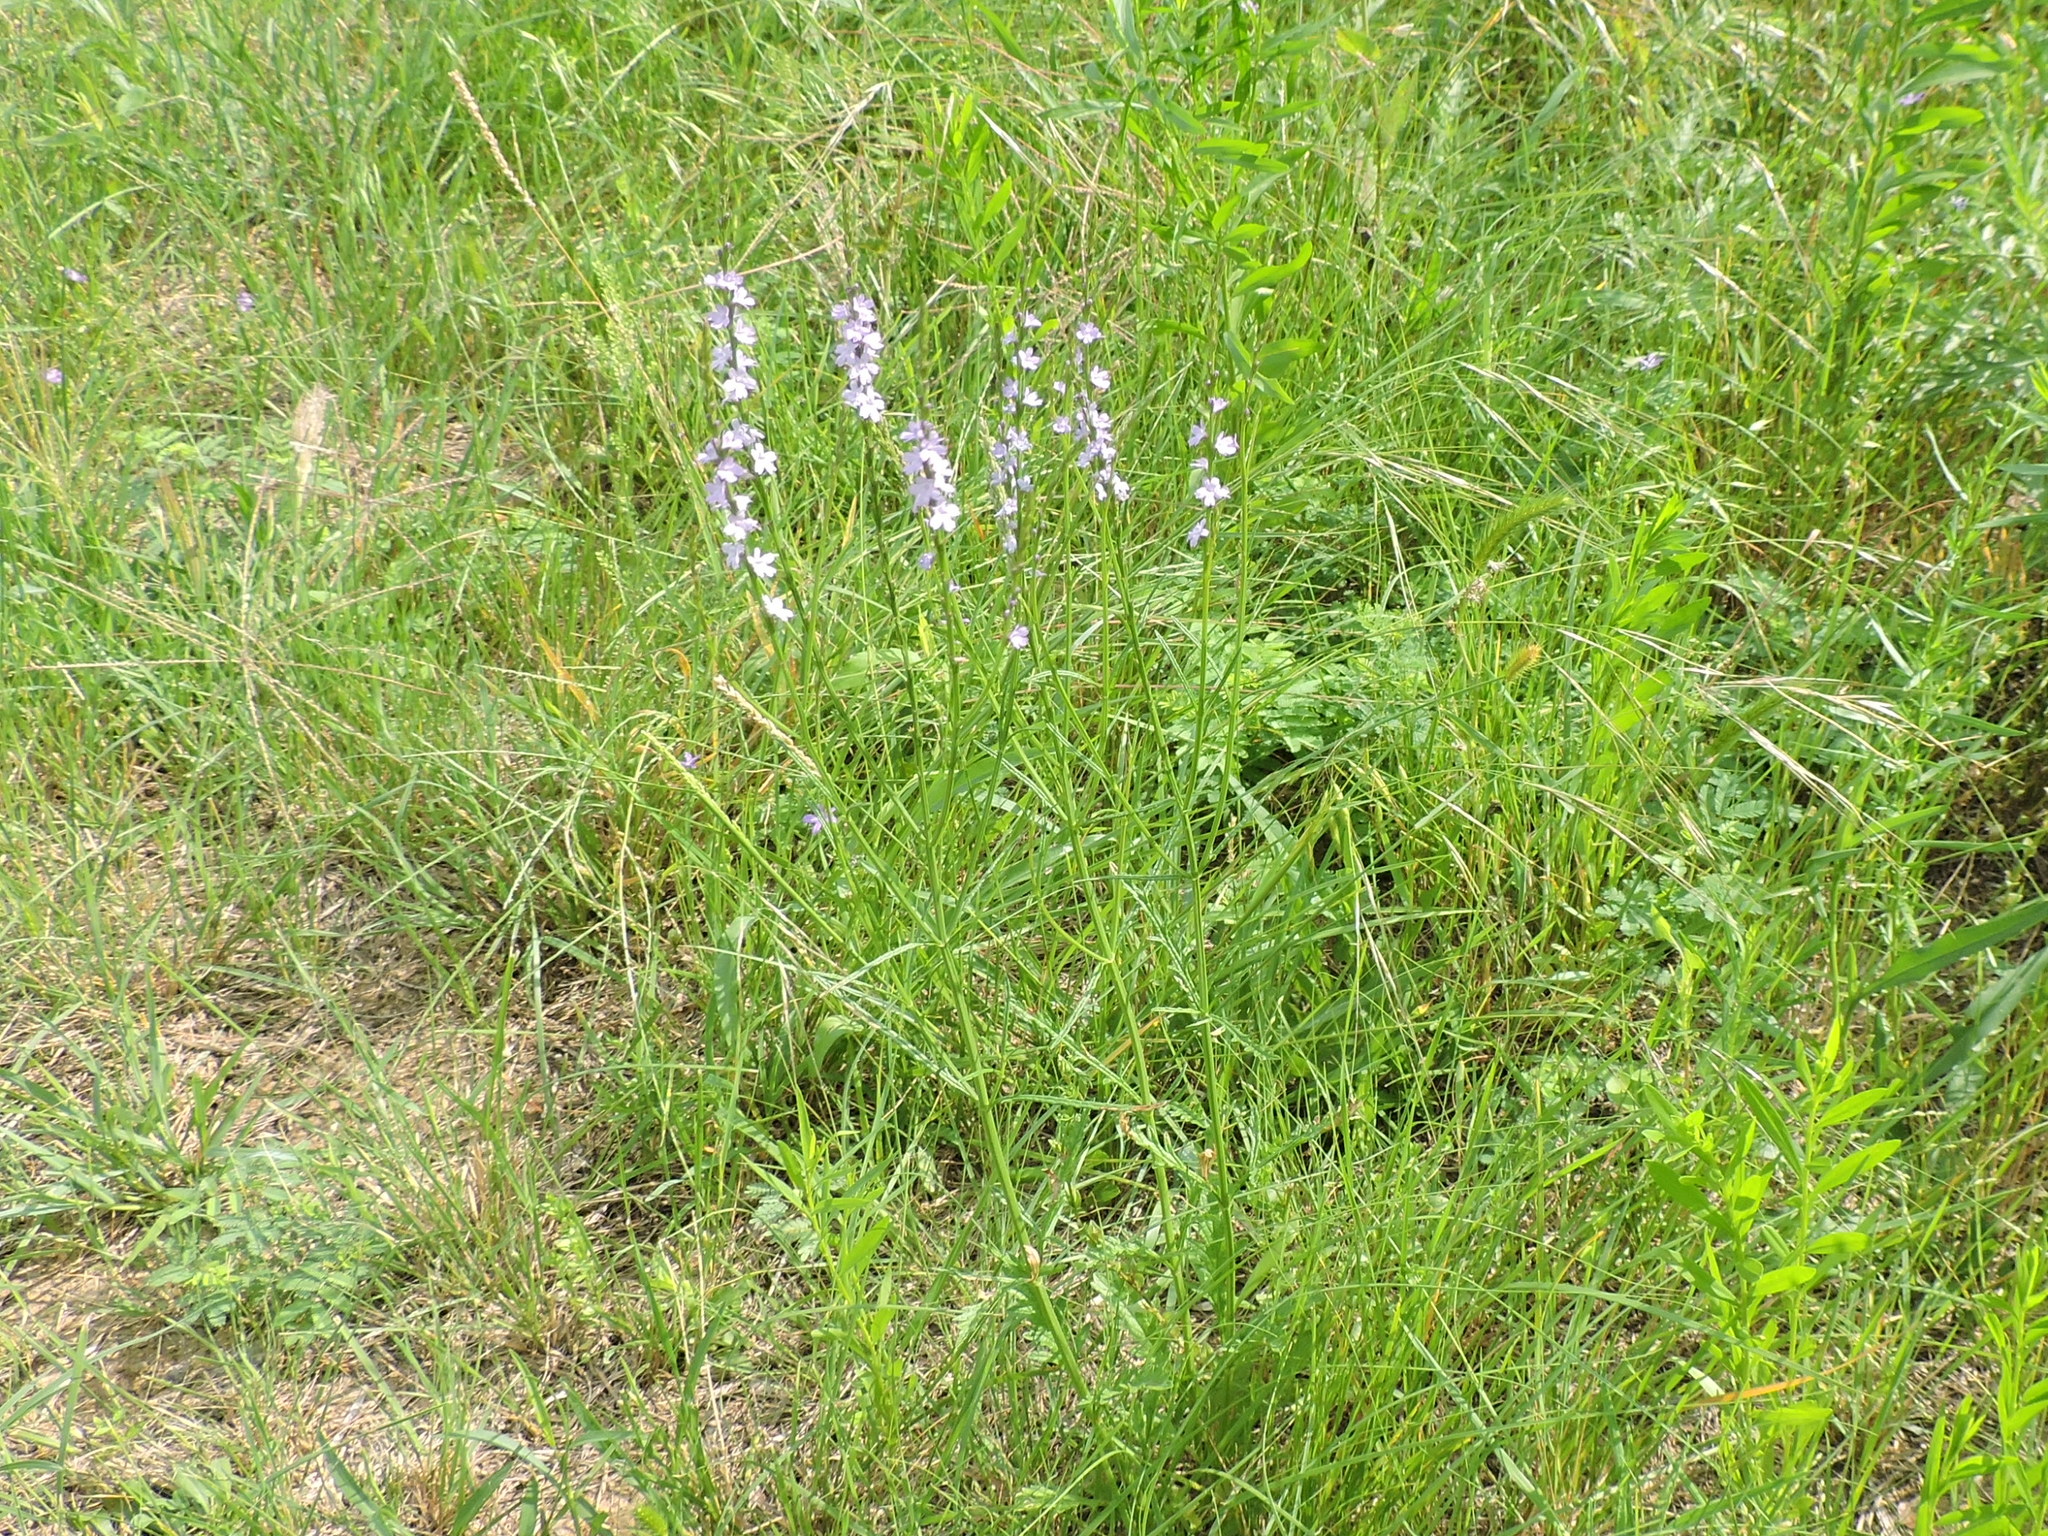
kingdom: Plantae
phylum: Tracheophyta
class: Magnoliopsida
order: Lamiales
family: Verbenaceae
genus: Verbena
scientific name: Verbena halei
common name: Texas vervain
